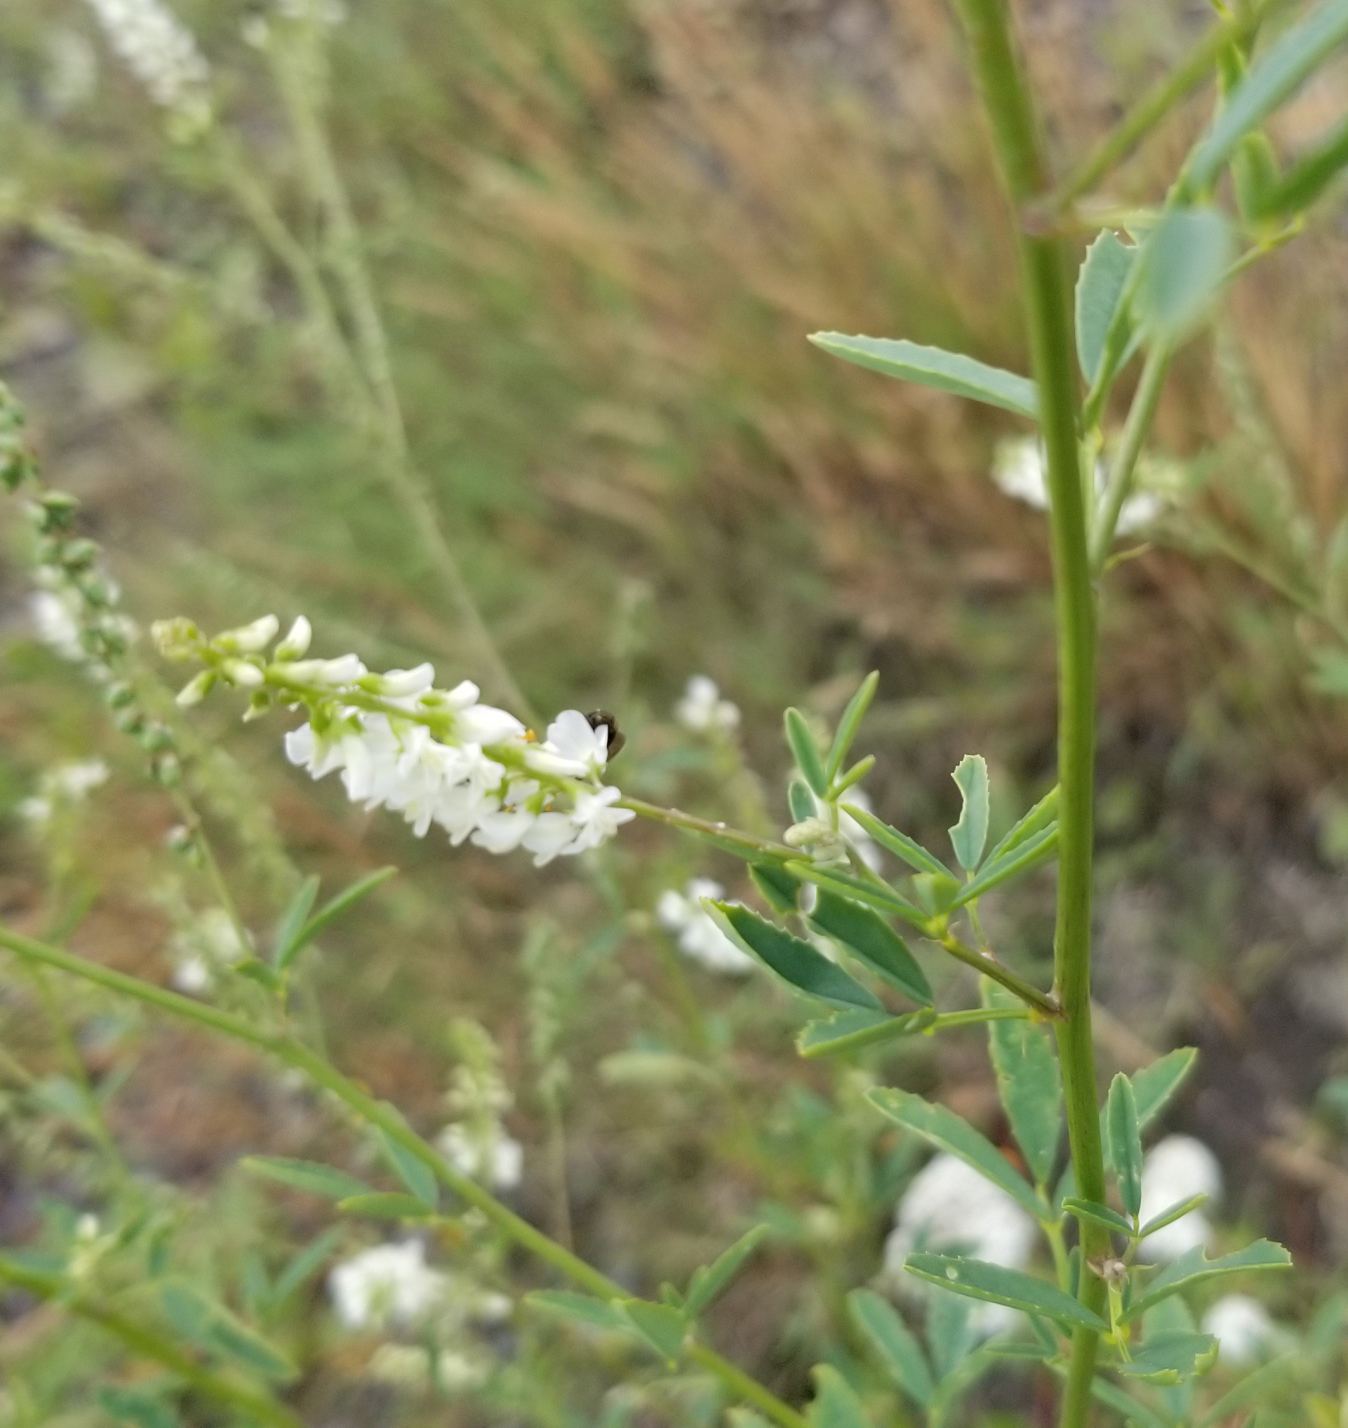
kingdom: Plantae
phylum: Tracheophyta
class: Magnoliopsida
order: Fabales
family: Fabaceae
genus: Melilotus
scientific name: Melilotus albus
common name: White melilot
